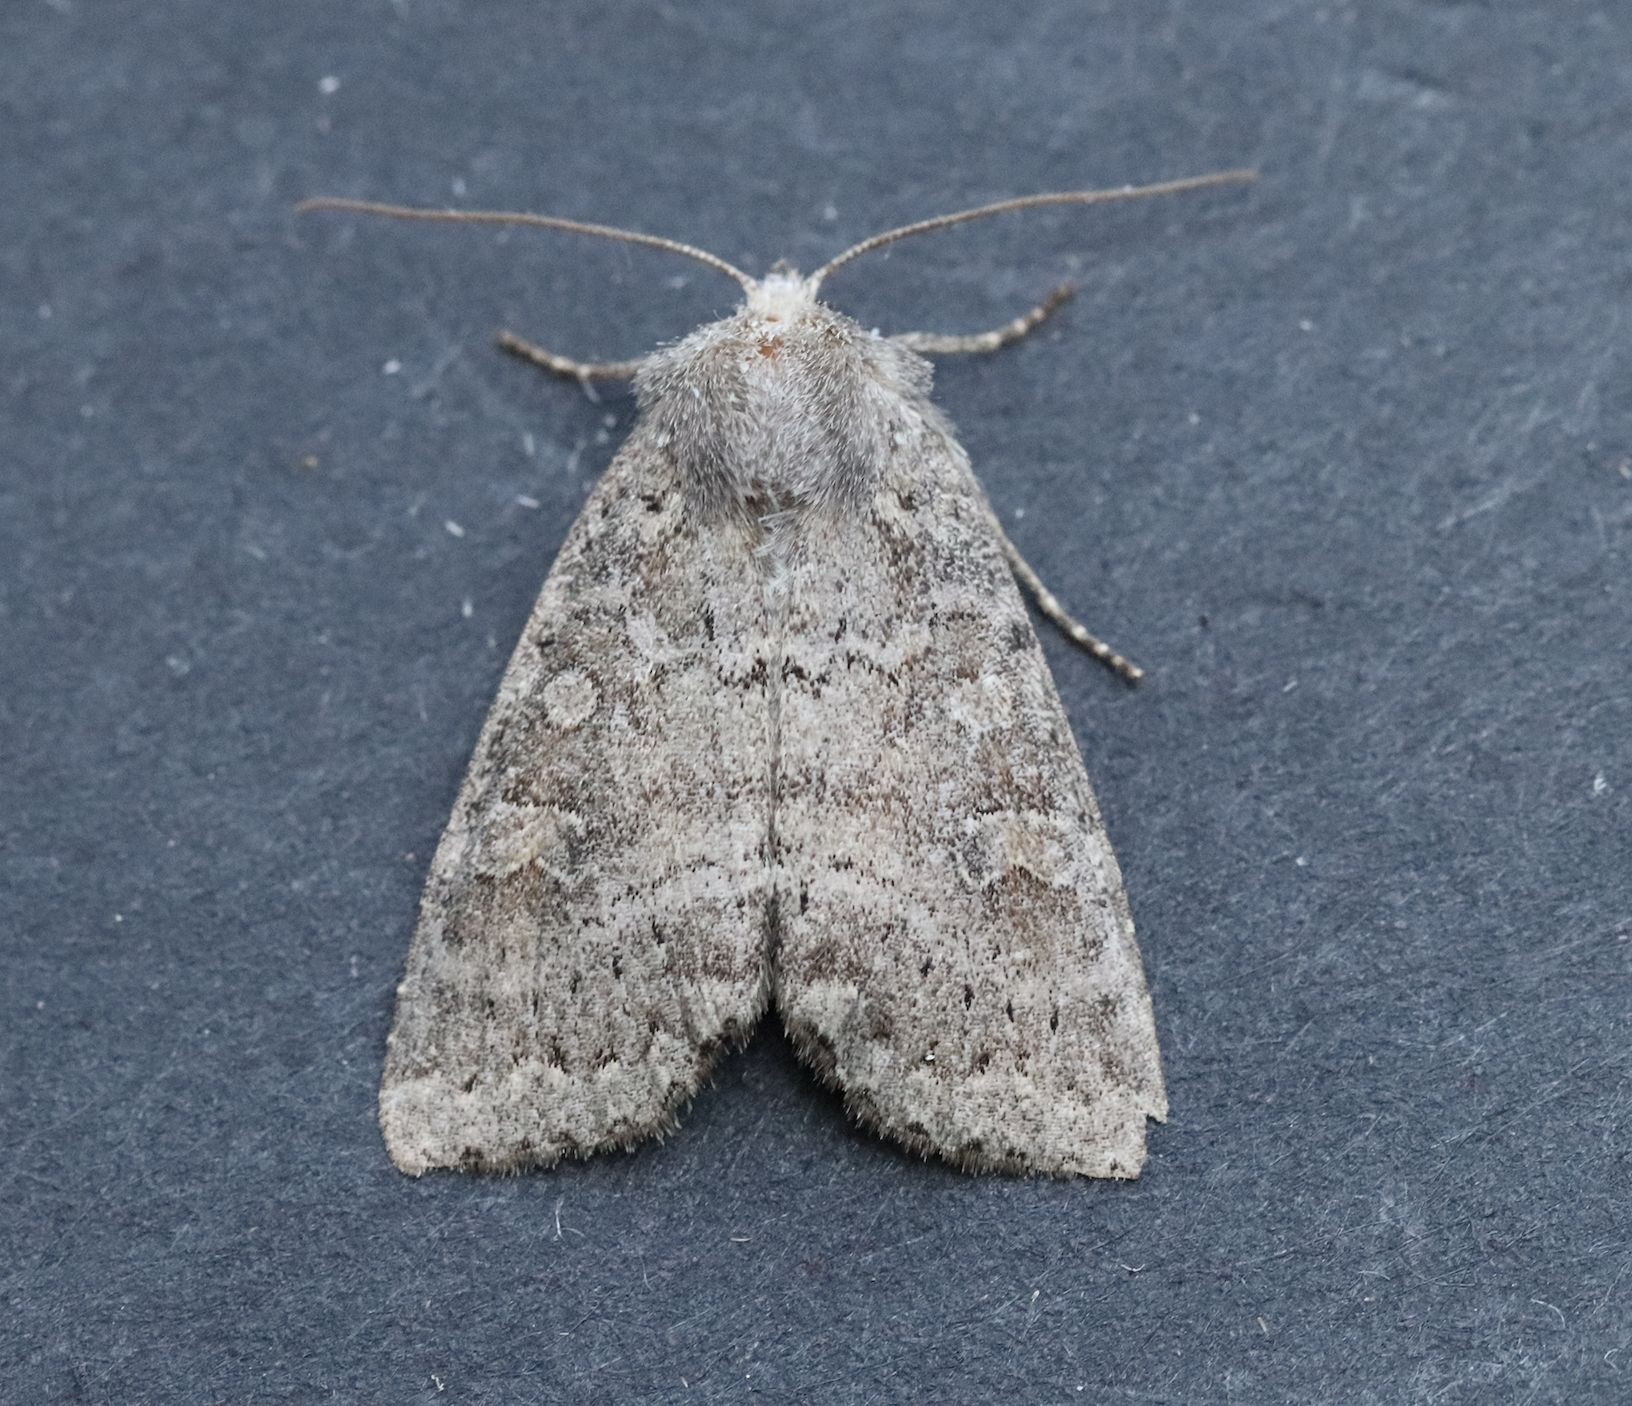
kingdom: Animalia
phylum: Arthropoda
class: Insecta
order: Lepidoptera
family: Noctuidae
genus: Parastichtis
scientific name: Parastichtis suspecta
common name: Suspected
